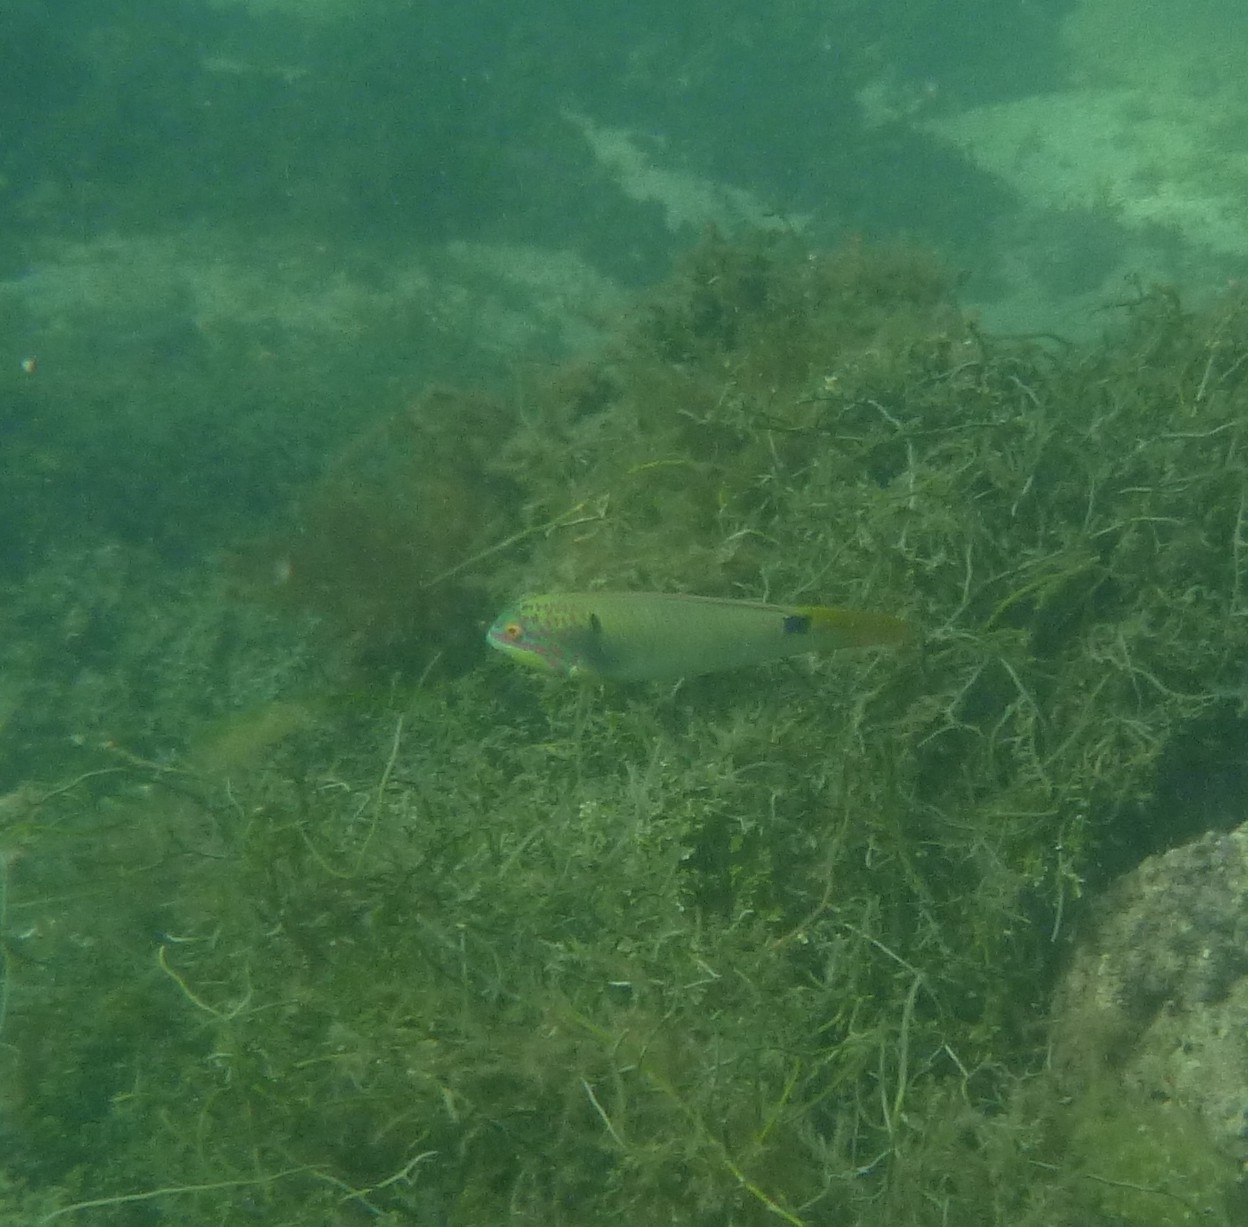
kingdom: Animalia
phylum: Chordata
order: Perciformes
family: Labridae
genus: Halichoeres
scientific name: Halichoeres trimaculatus
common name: Three-spot wrasse
